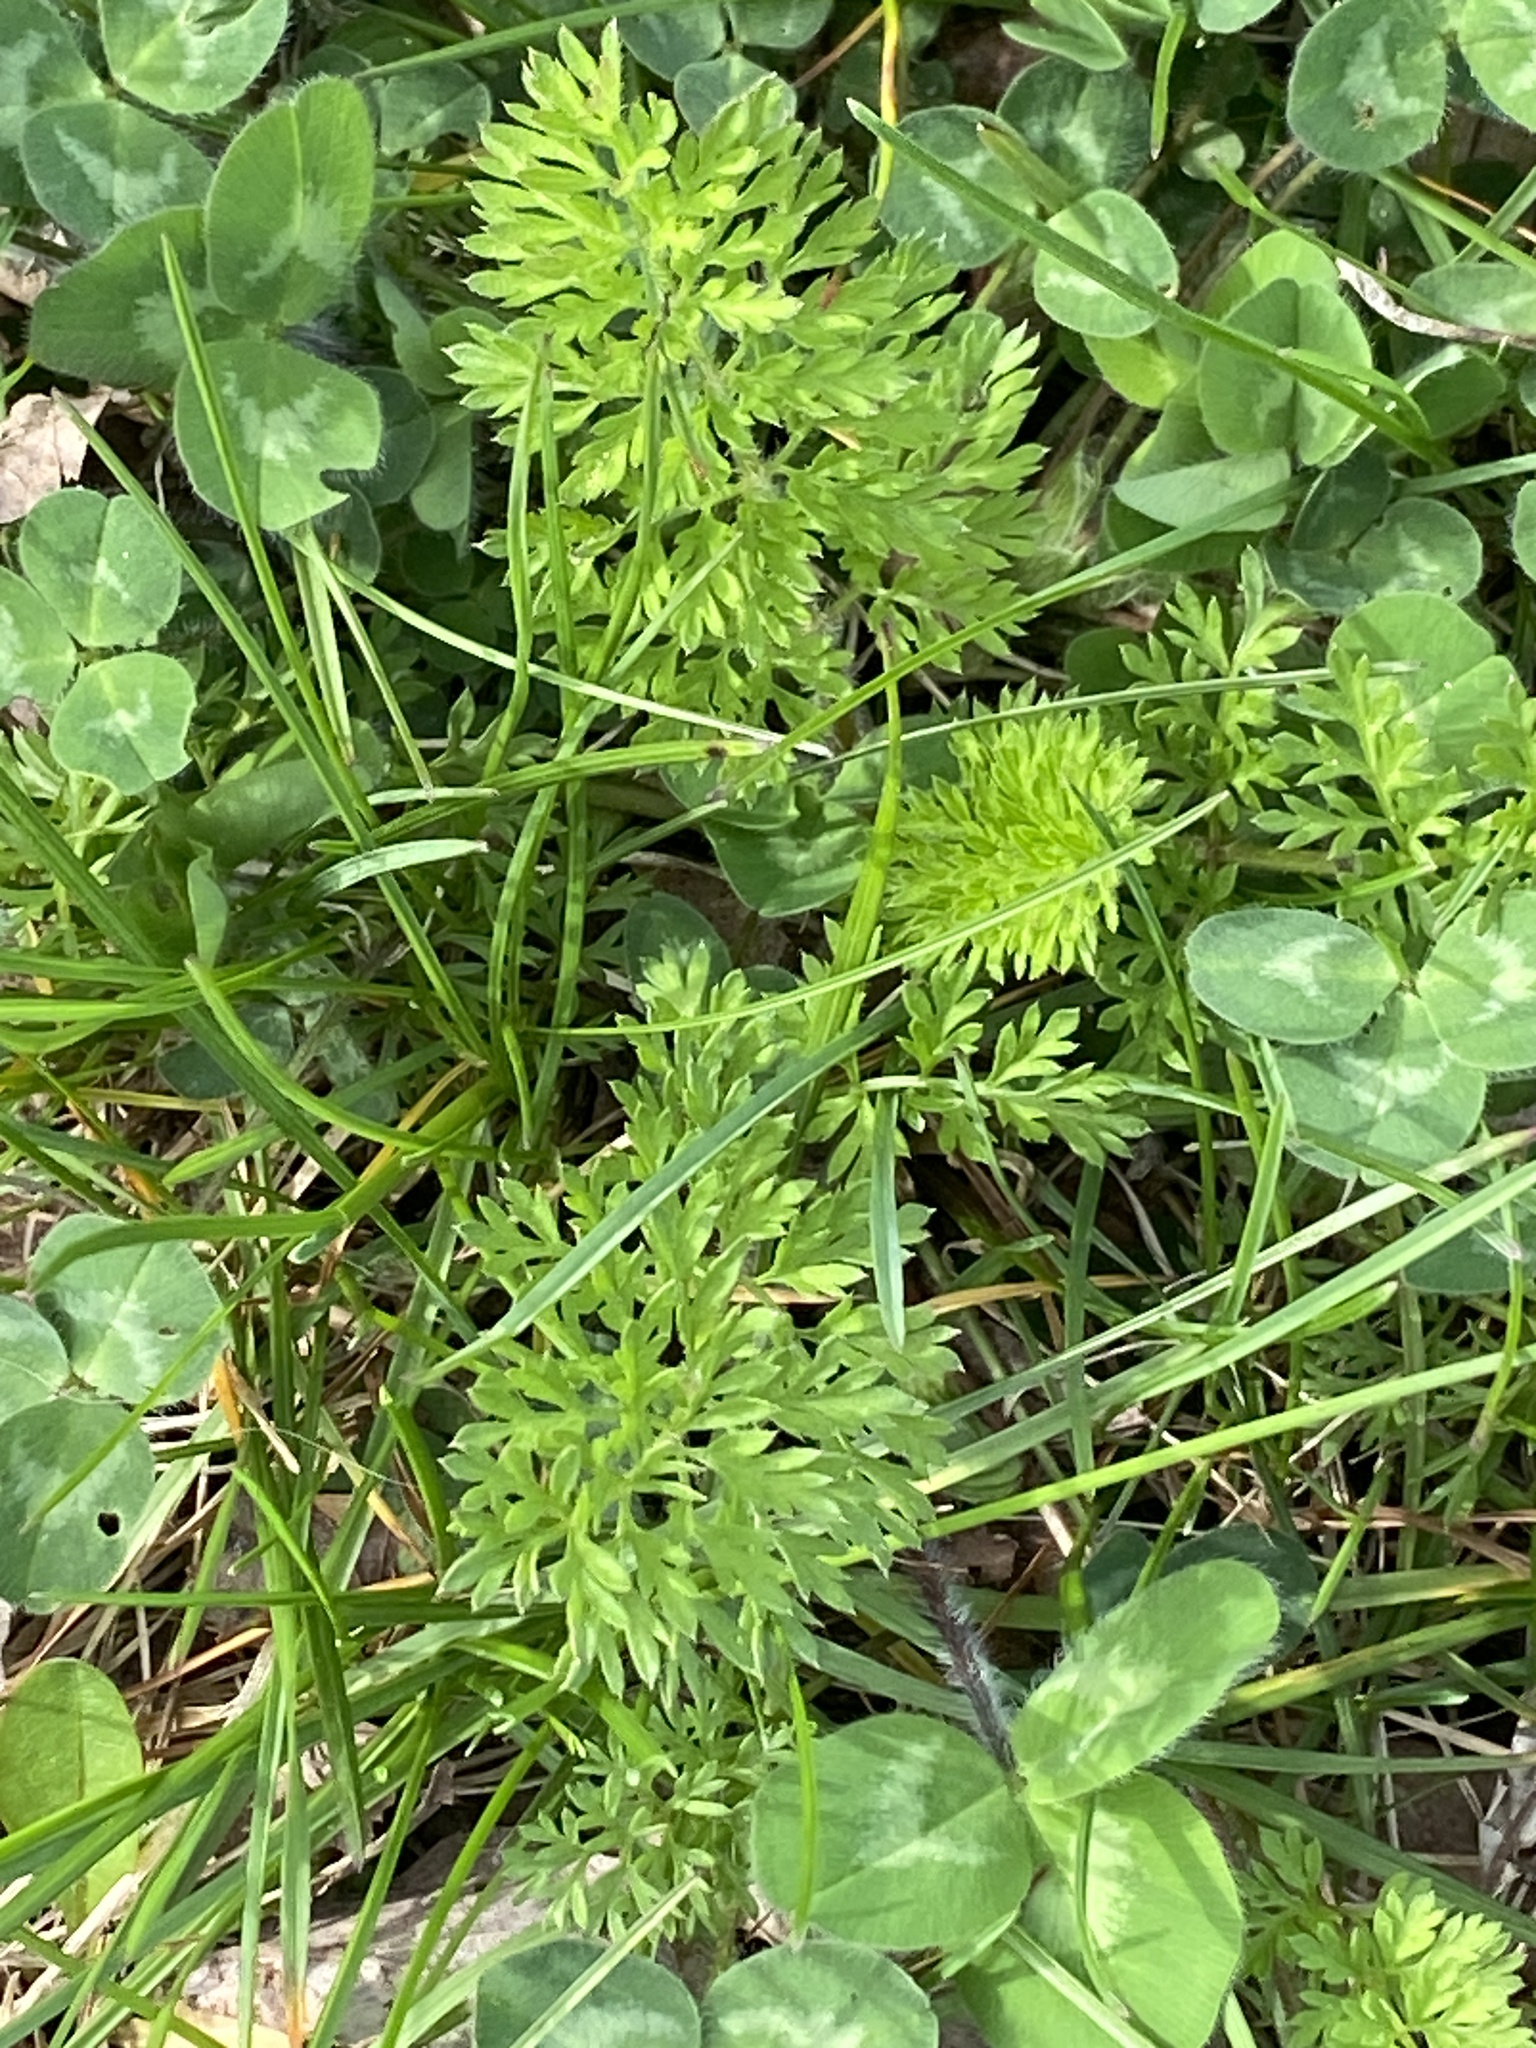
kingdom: Plantae
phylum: Tracheophyta
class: Magnoliopsida
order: Apiales
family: Apiaceae
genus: Daucus
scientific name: Daucus carota
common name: Wild carrot
